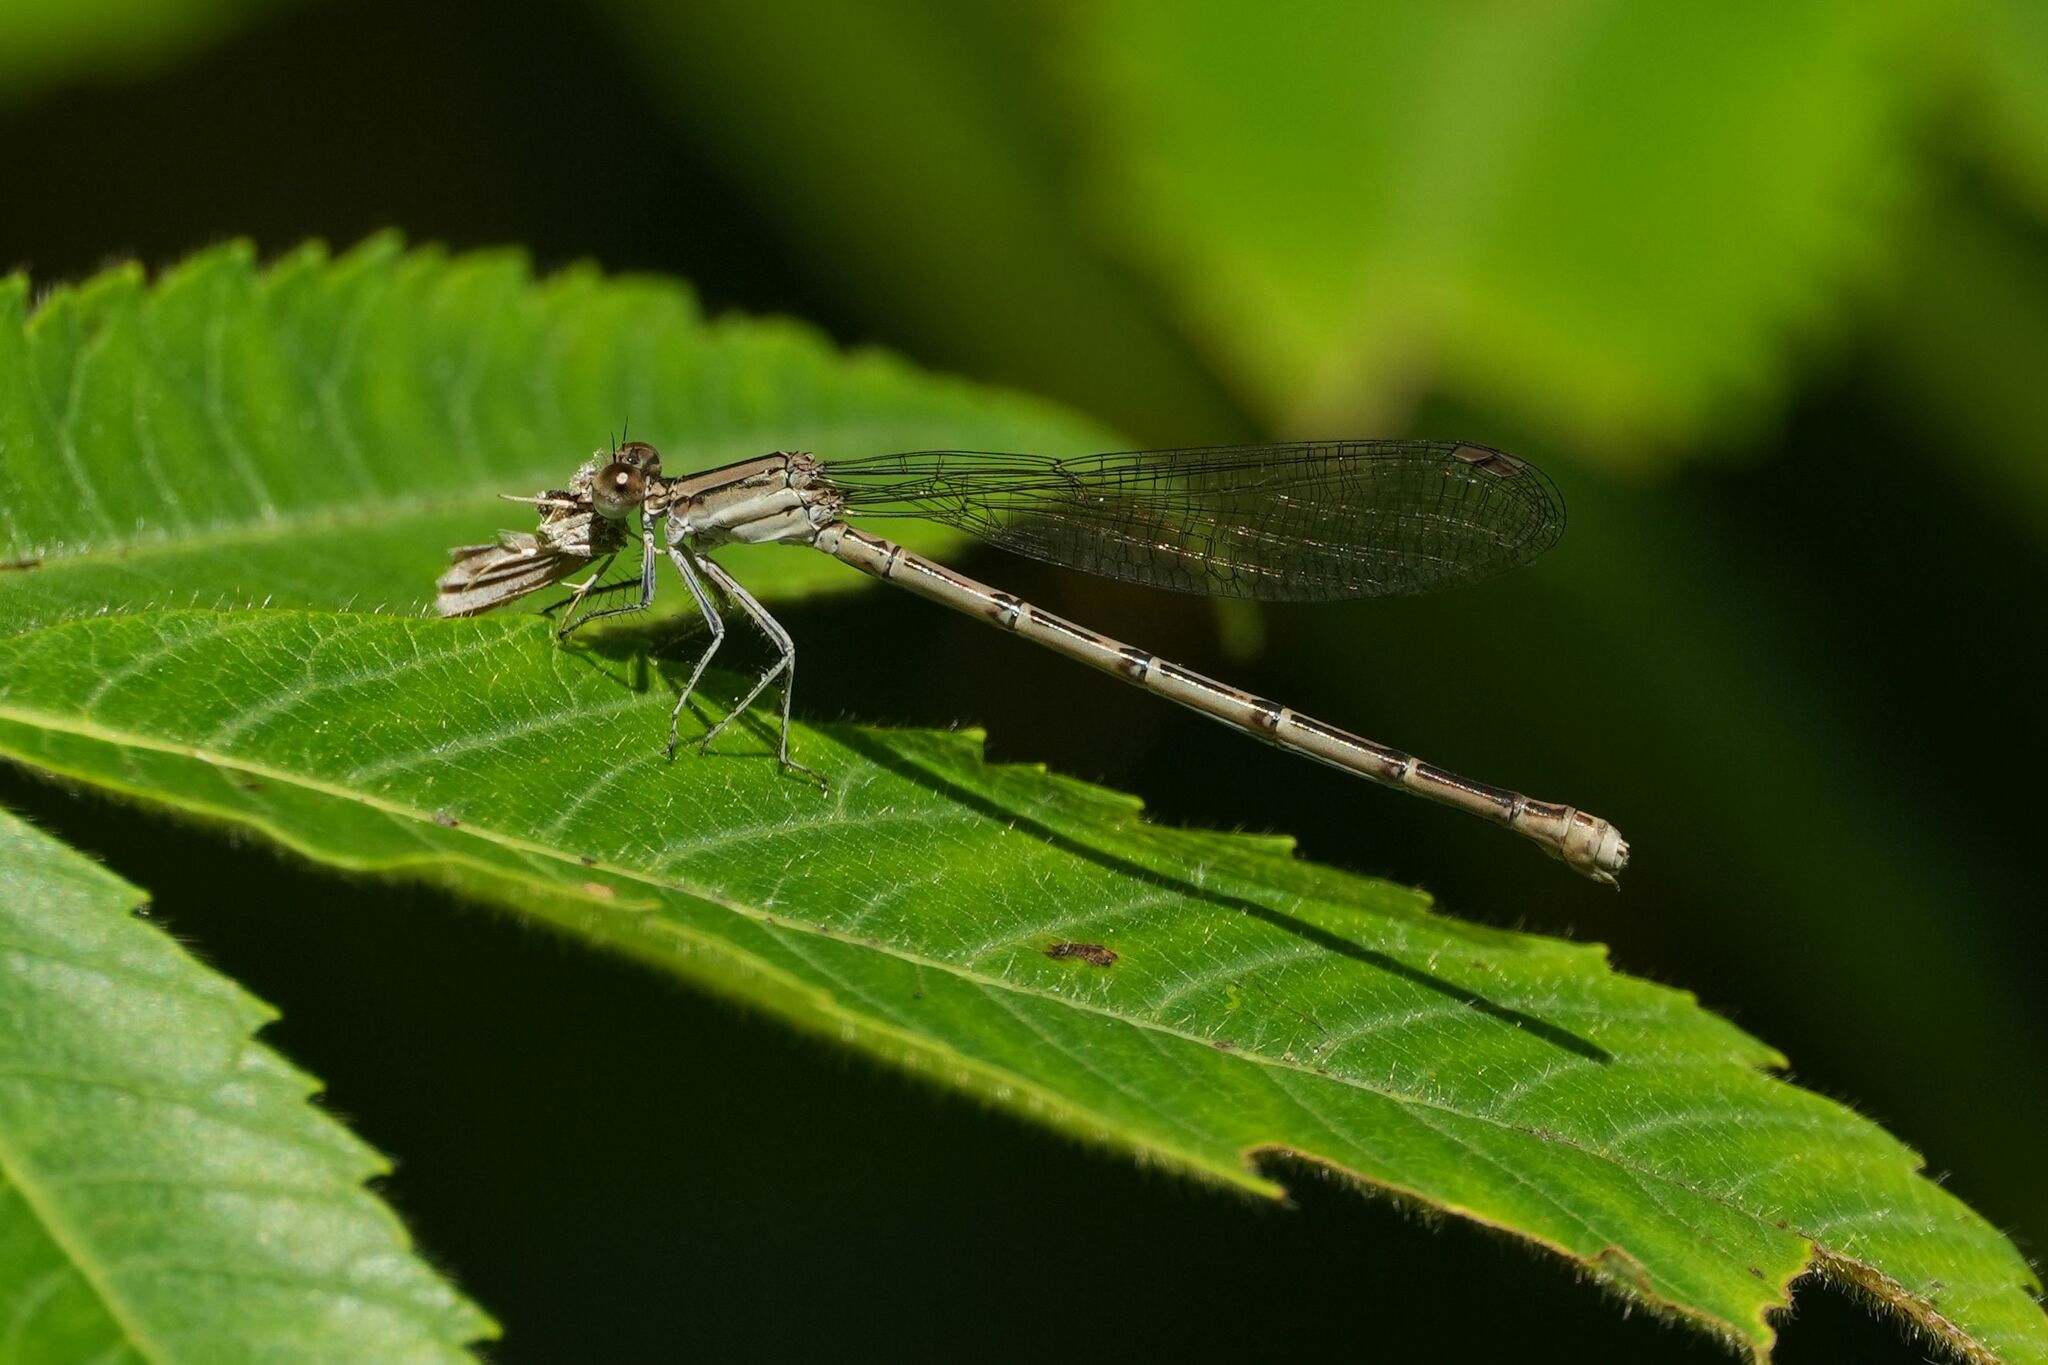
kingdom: Animalia
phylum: Arthropoda
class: Insecta
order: Odonata
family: Coenagrionidae
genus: Argia
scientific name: Argia fumipennis
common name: Variable dancer
